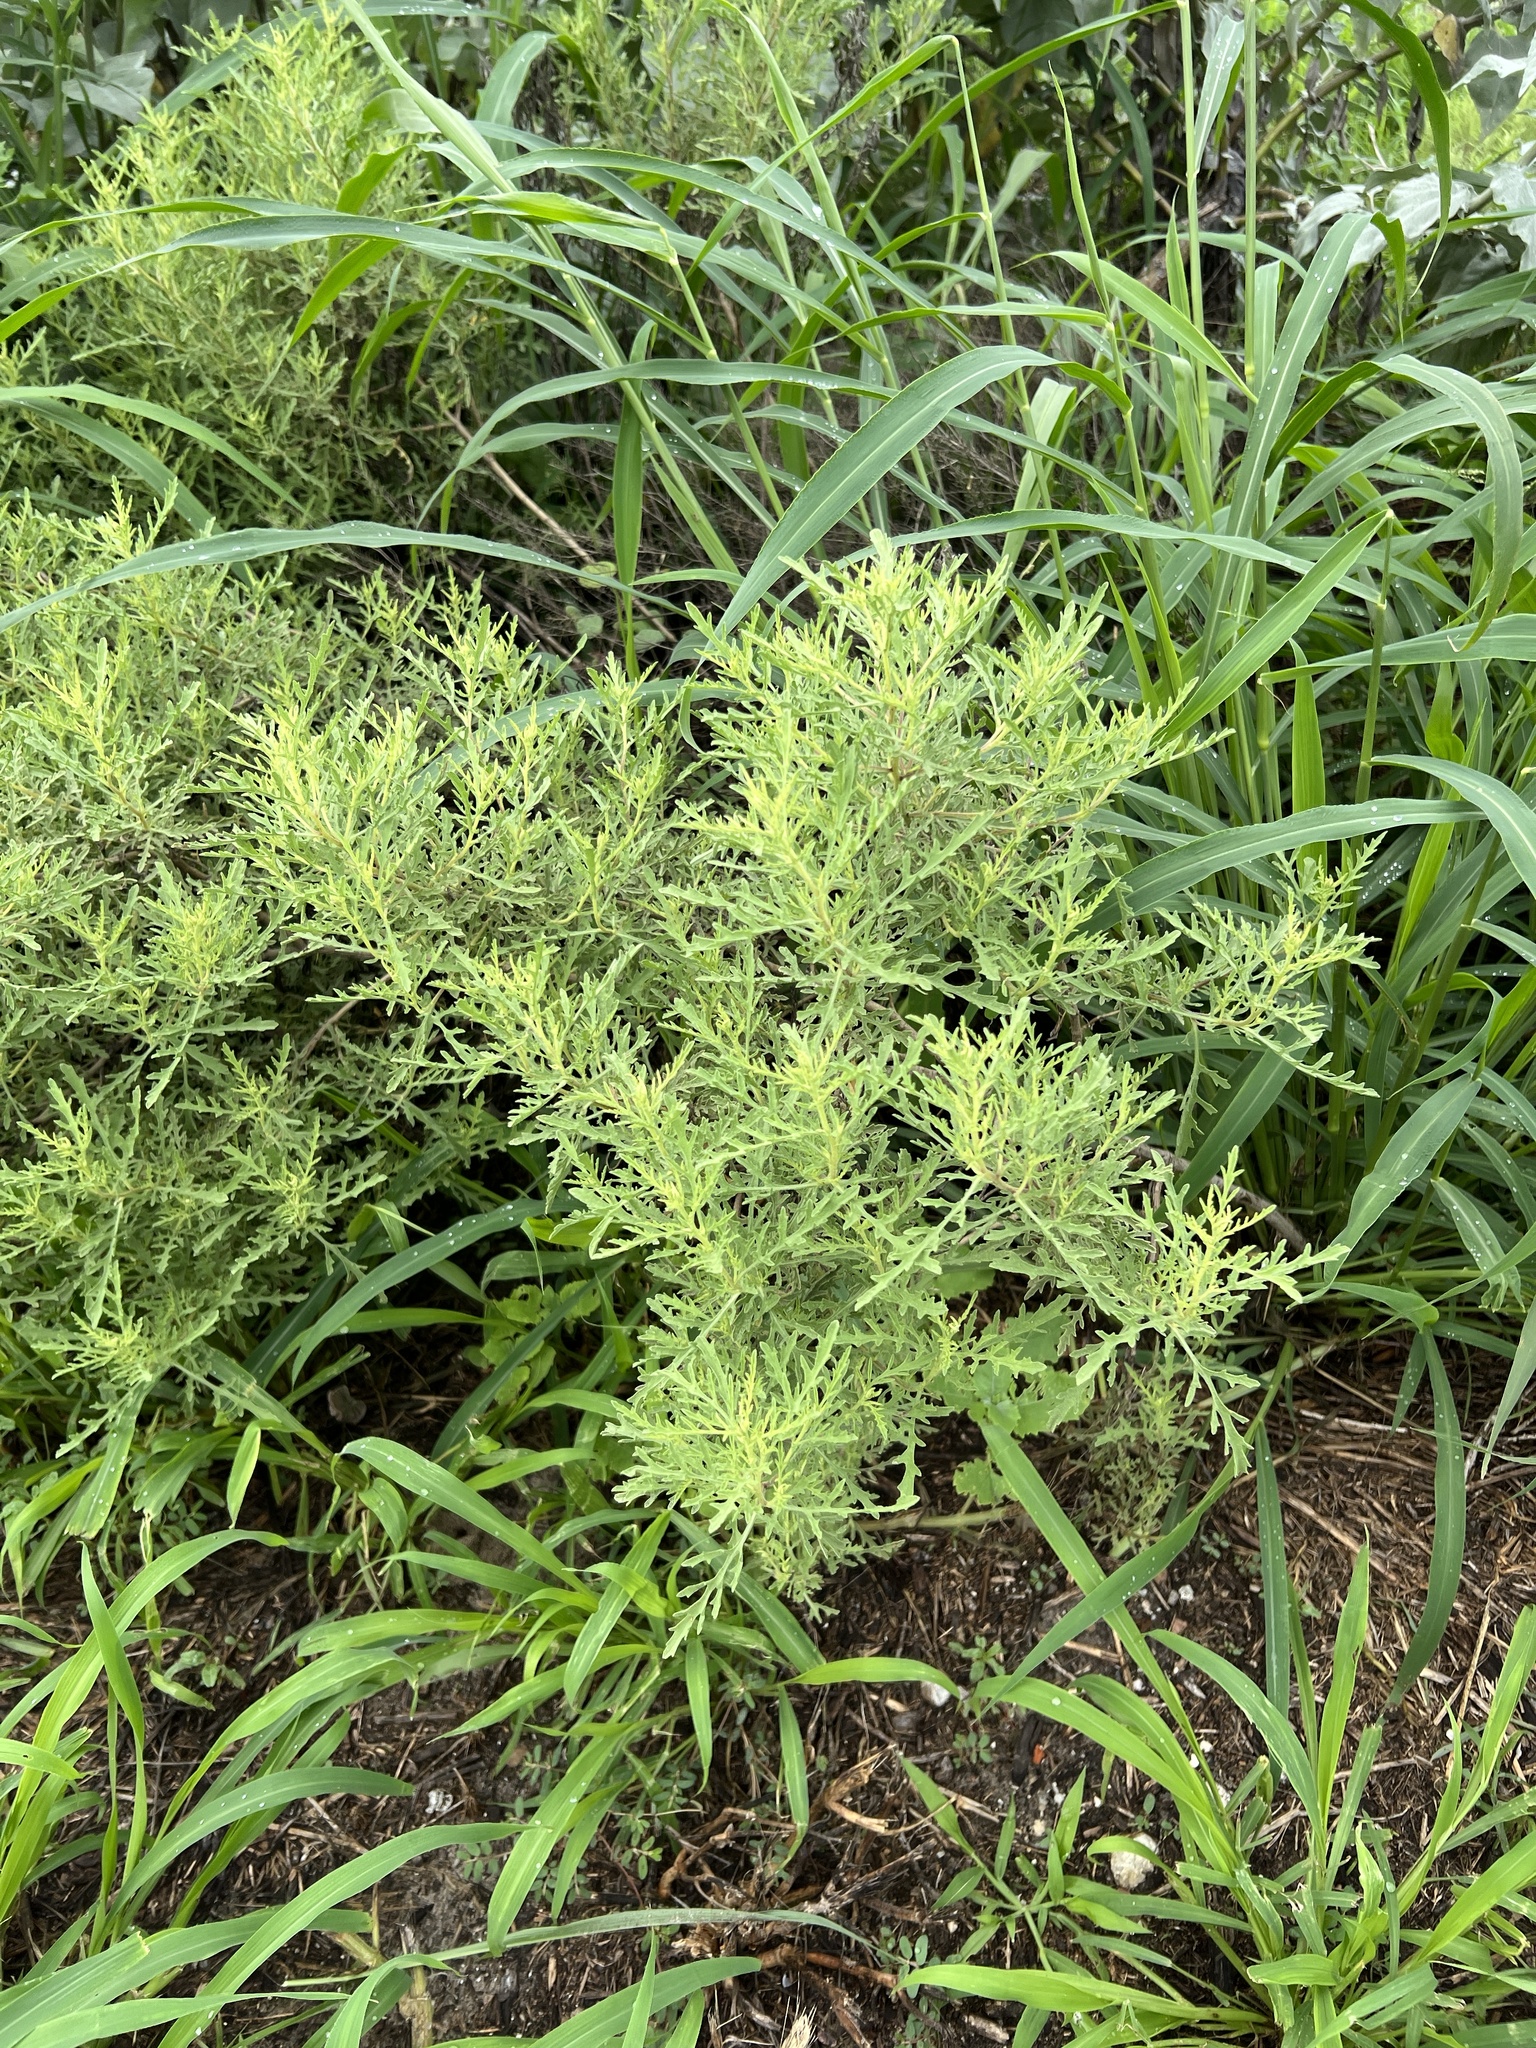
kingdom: Plantae
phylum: Tracheophyta
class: Magnoliopsida
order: Asterales
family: Asteraceae
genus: Ambrosia
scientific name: Ambrosia psilostachya
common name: Perennial ragweed
